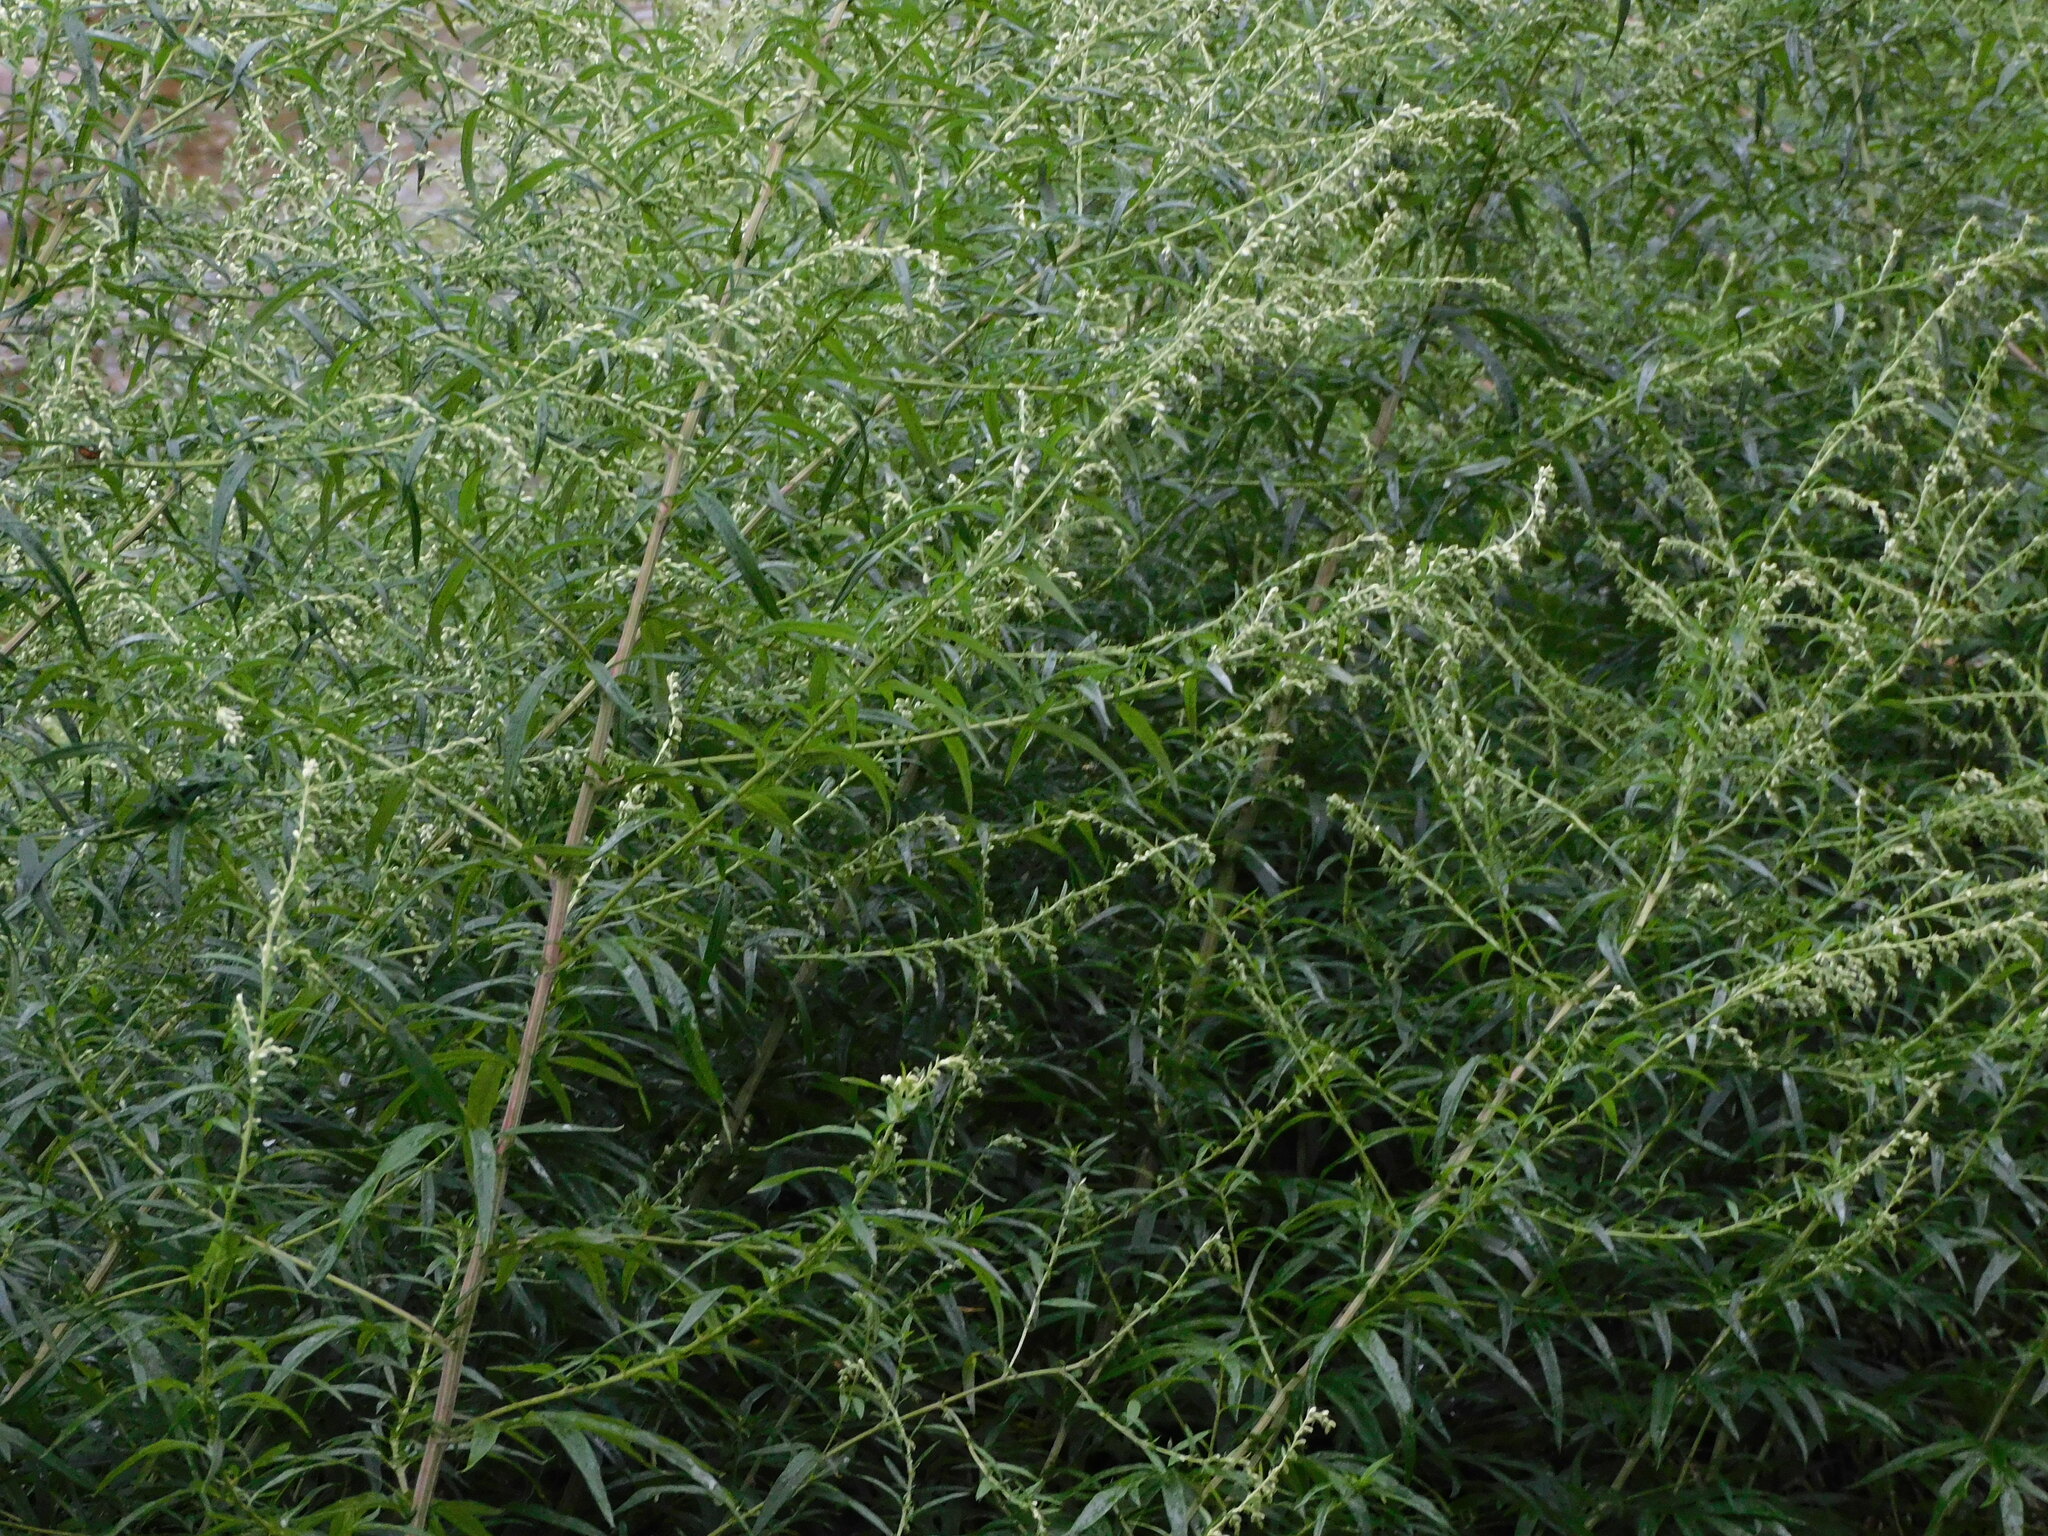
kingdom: Plantae
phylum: Tracheophyta
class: Magnoliopsida
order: Asterales
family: Asteraceae
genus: Artemisia
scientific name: Artemisia vulgaris
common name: Mugwort
